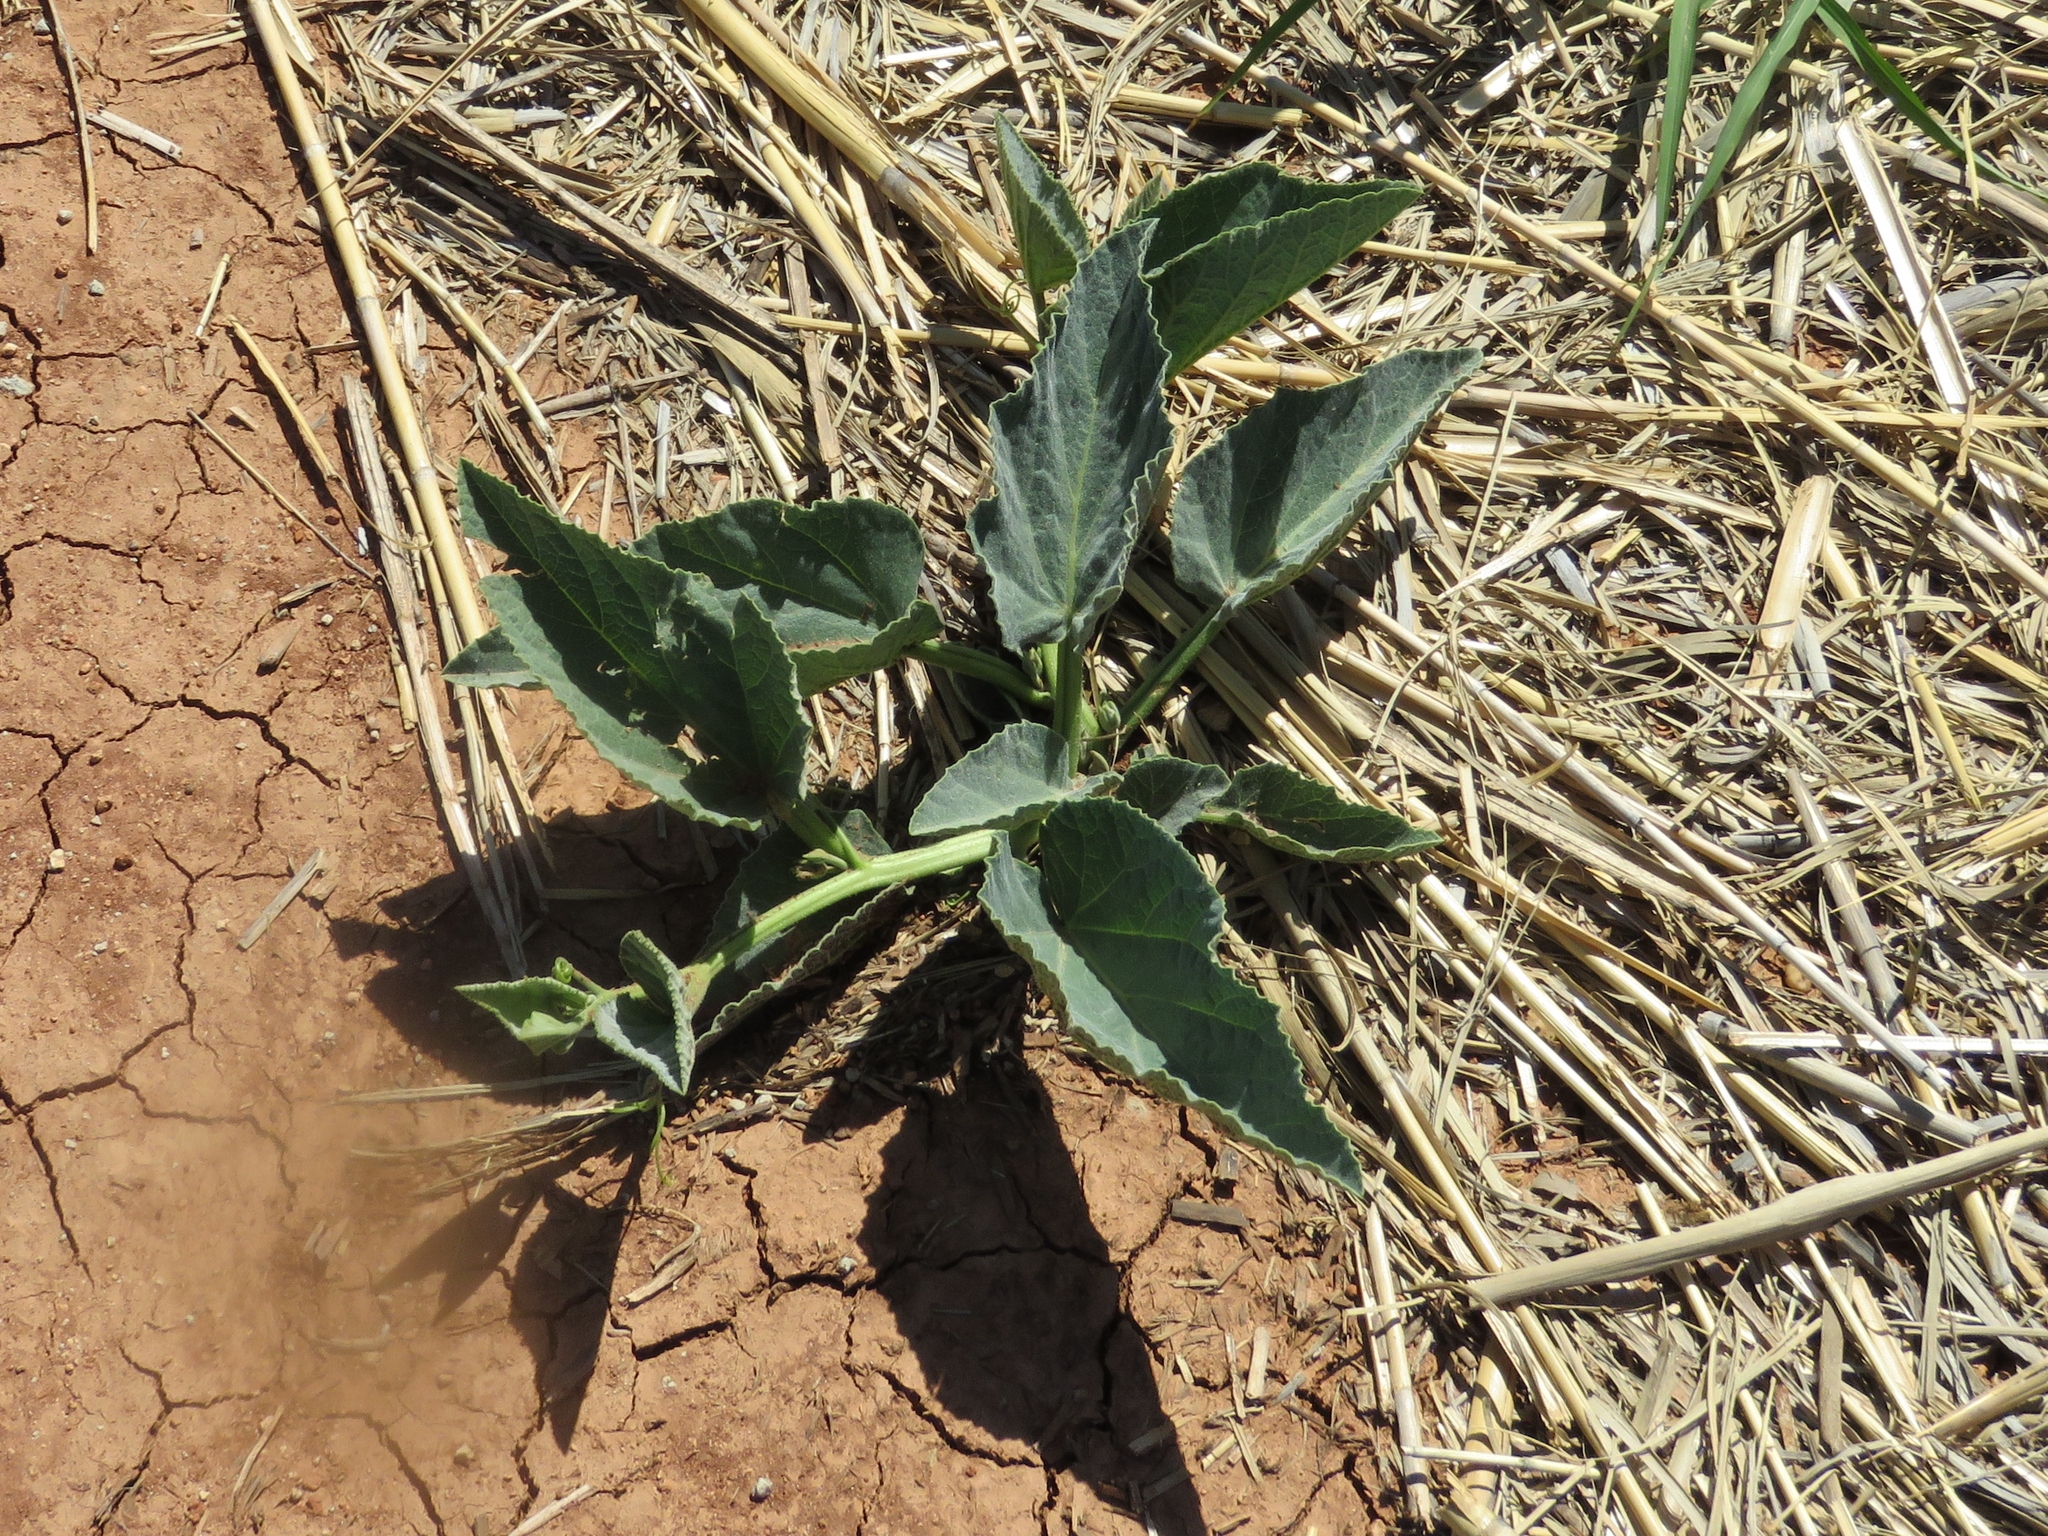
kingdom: Plantae
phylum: Tracheophyta
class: Magnoliopsida
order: Cucurbitales
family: Cucurbitaceae
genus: Cucurbita
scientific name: Cucurbita foetidissima
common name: Buffalo gourd
